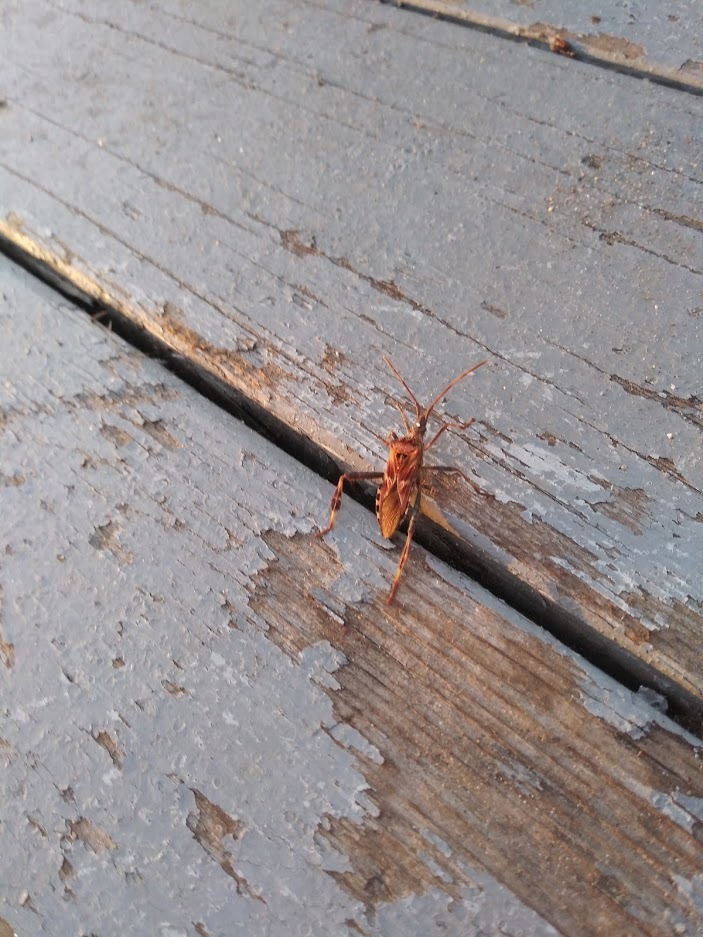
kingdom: Animalia
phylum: Arthropoda
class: Insecta
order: Hemiptera
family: Coreidae
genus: Leptoglossus
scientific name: Leptoglossus occidentalis
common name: Western conifer-seed bug
